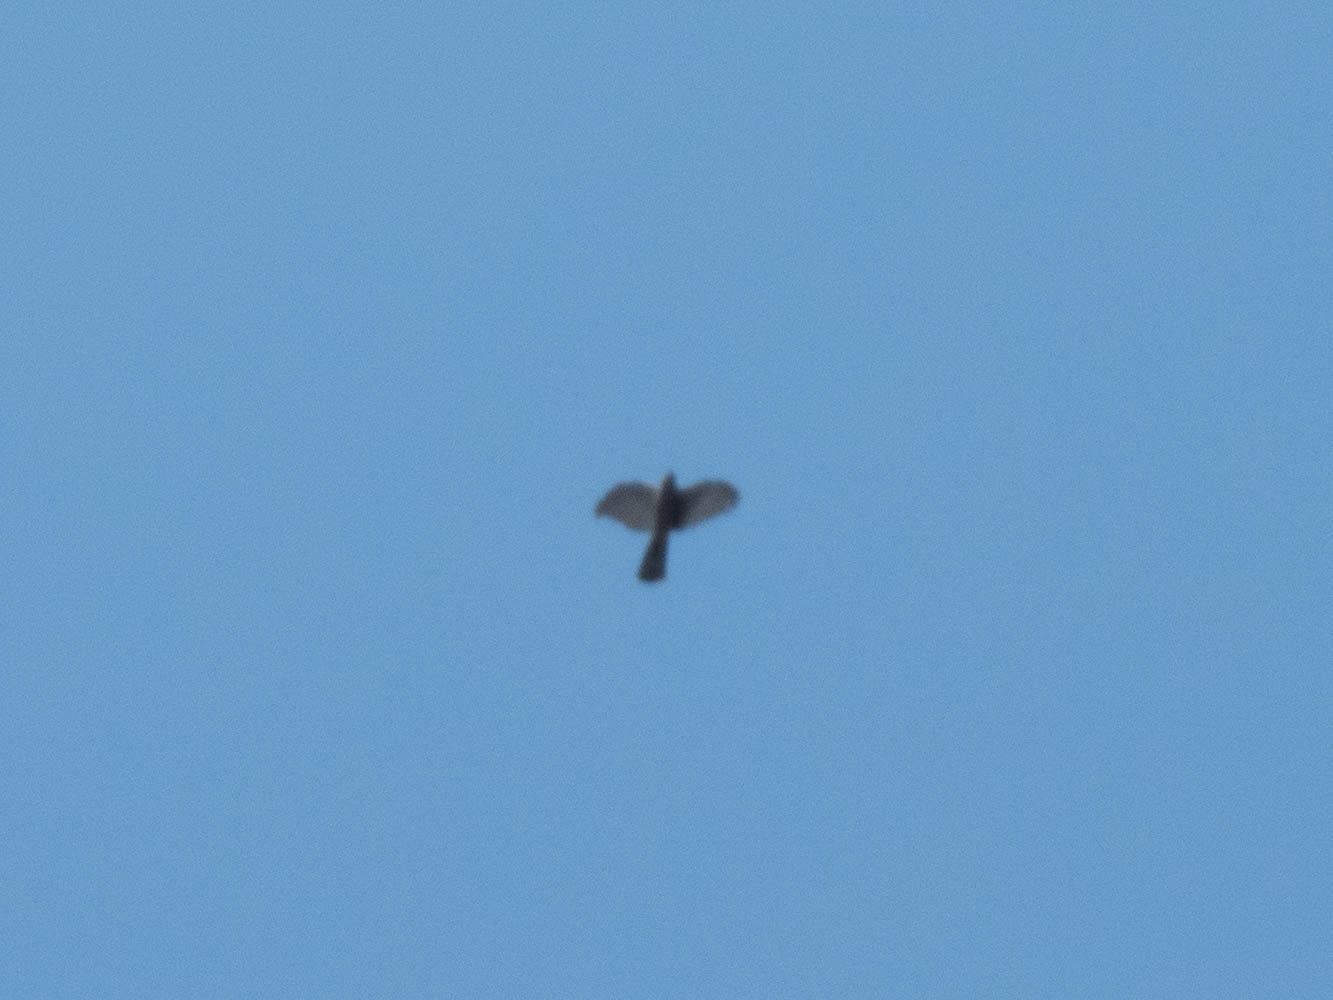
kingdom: Animalia
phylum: Chordata
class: Aves
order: Accipitriformes
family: Accipitridae
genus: Accipiter
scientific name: Accipiter nisus
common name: Eurasian sparrowhawk
